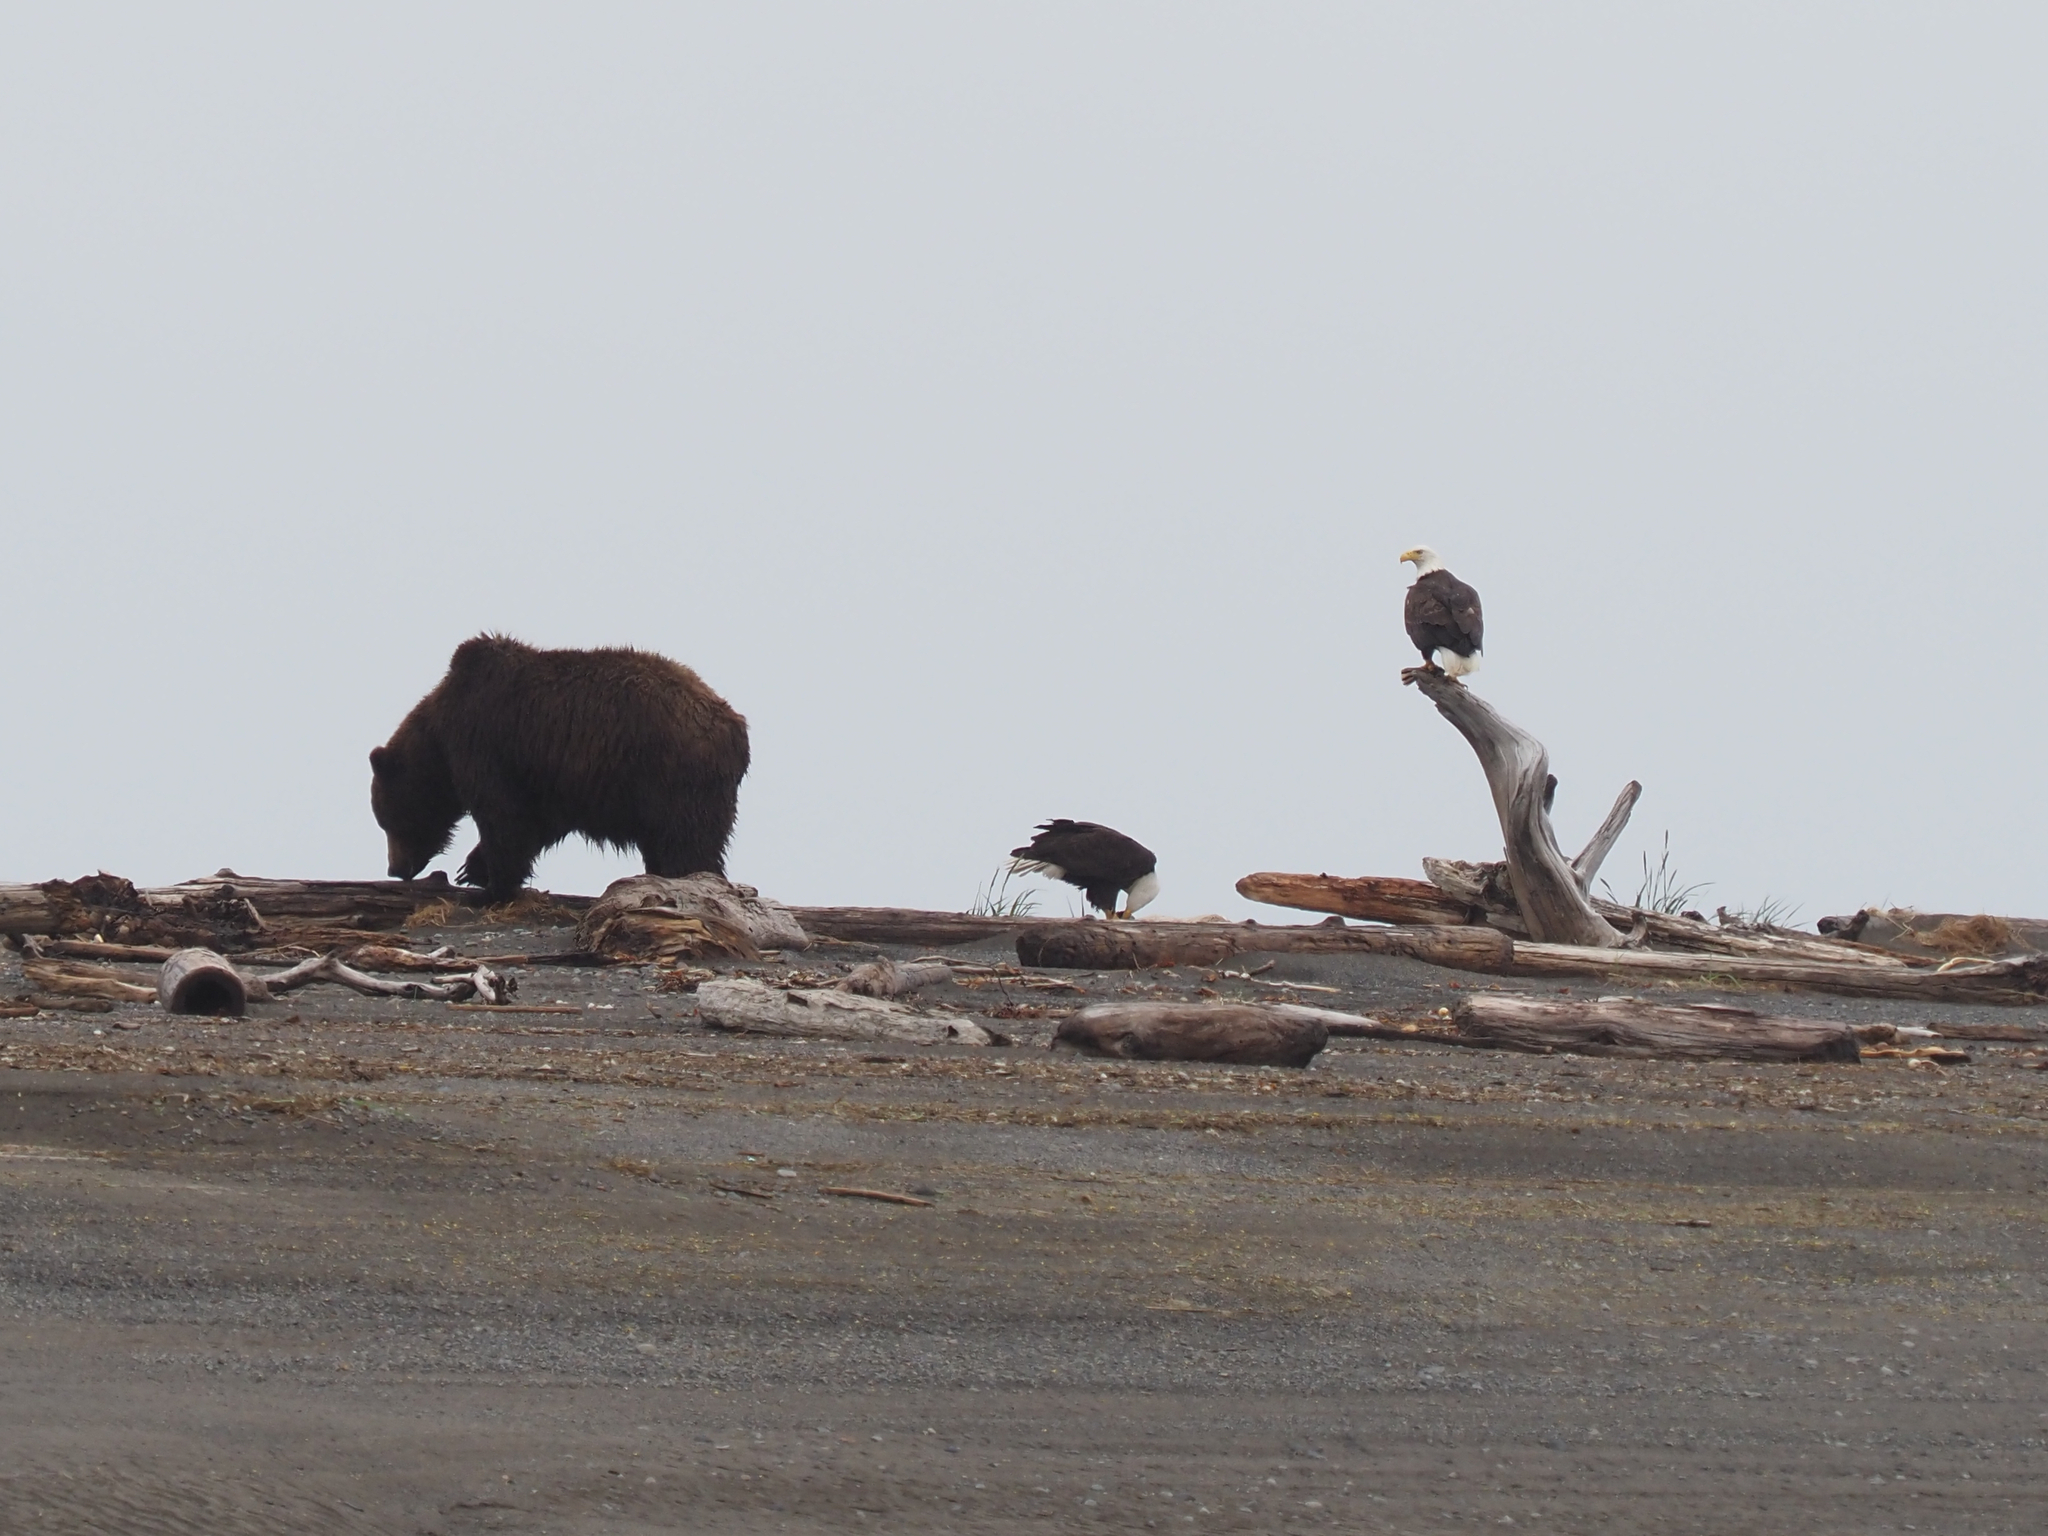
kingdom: Animalia
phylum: Chordata
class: Aves
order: Accipitriformes
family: Accipitridae
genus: Haliaeetus
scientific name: Haliaeetus leucocephalus
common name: Bald eagle
